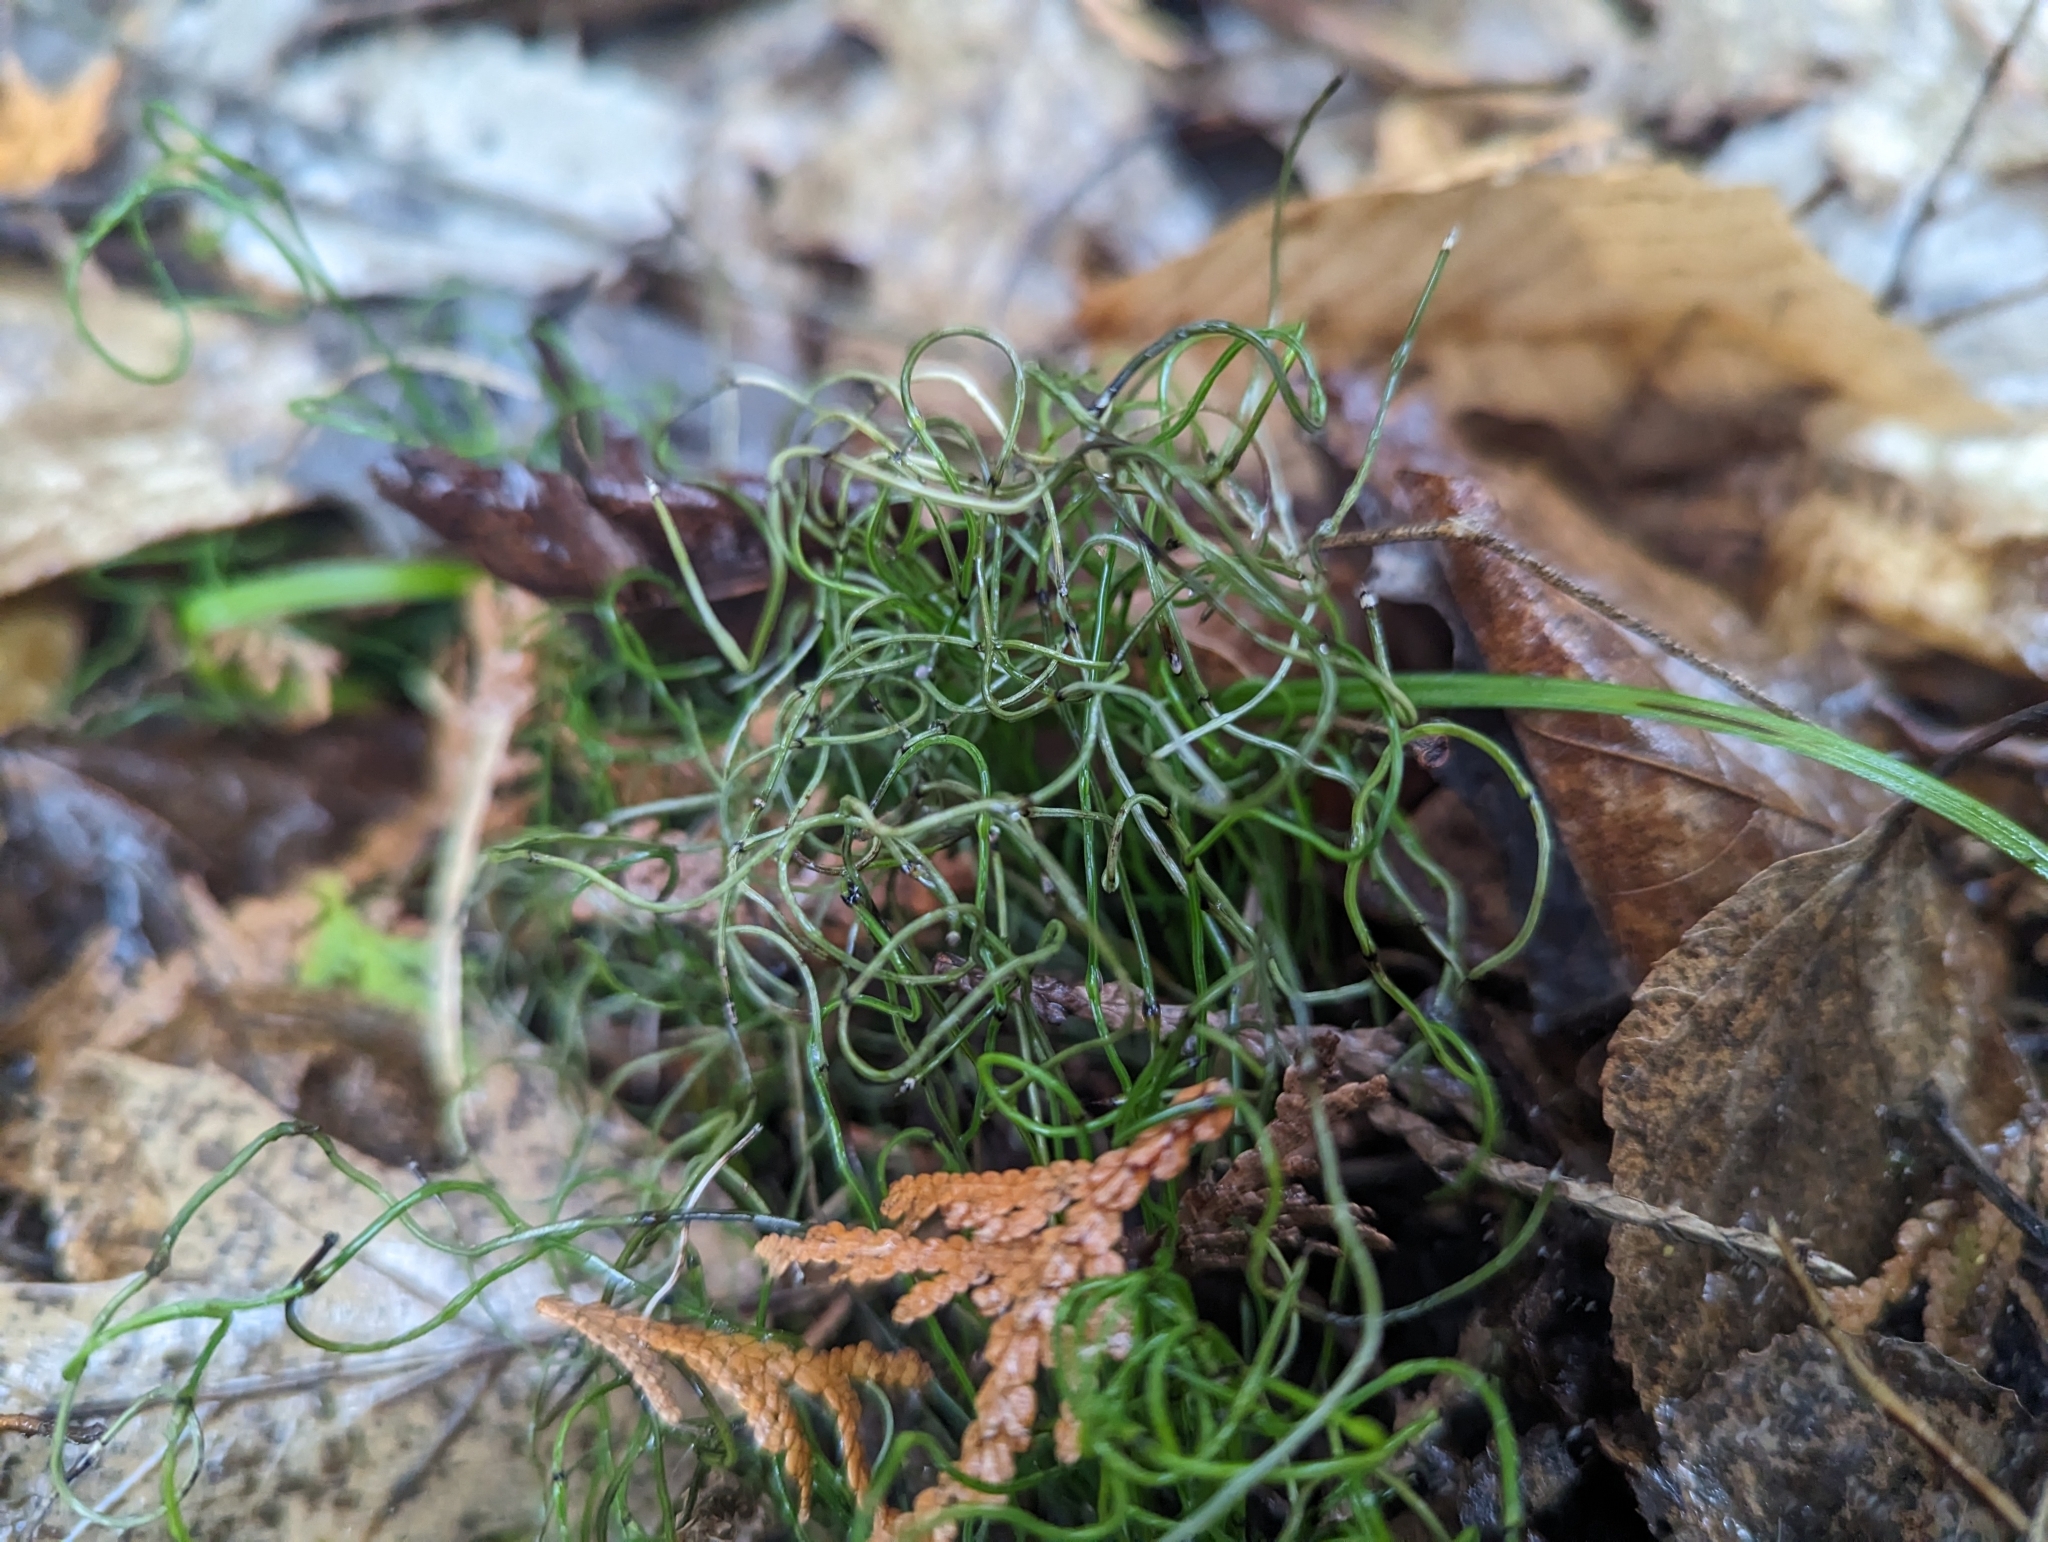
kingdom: Plantae
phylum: Tracheophyta
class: Polypodiopsida
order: Equisetales
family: Equisetaceae
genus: Equisetum
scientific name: Equisetum scirpoides
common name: Delicate horsetail
